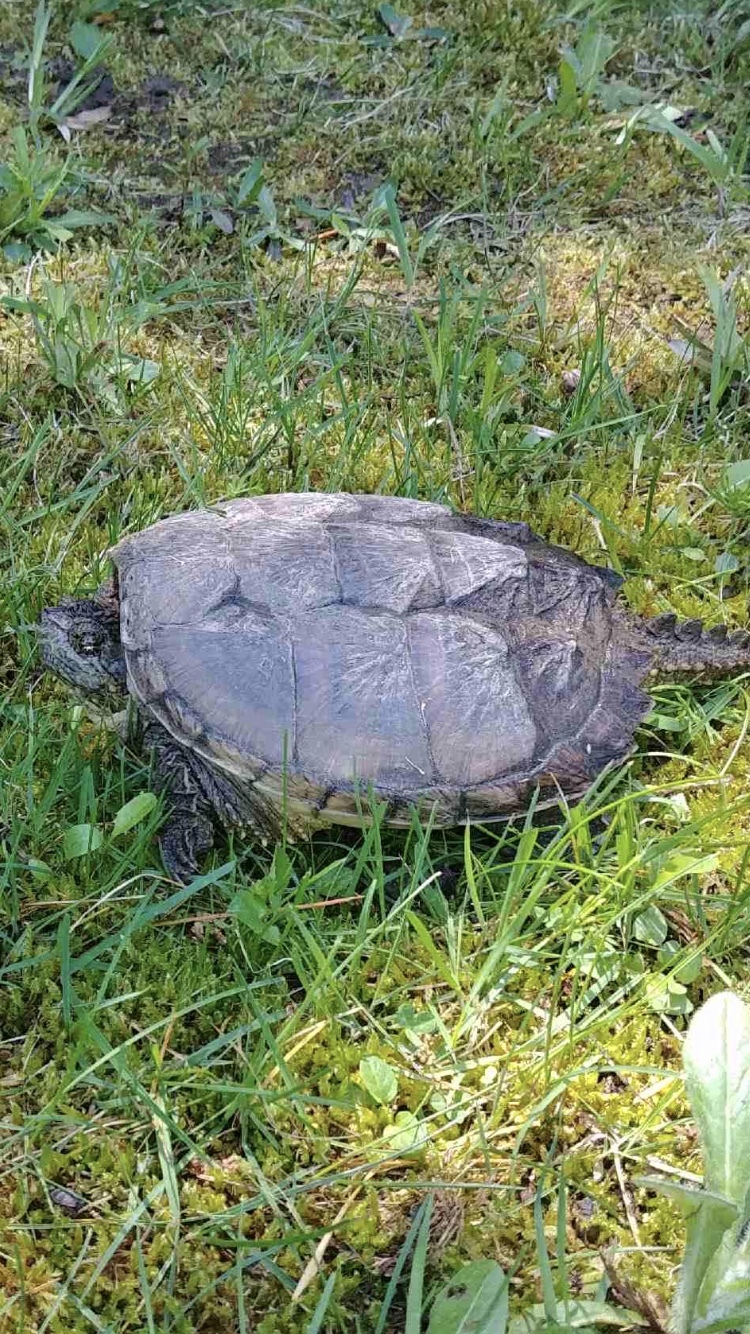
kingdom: Animalia
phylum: Chordata
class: Testudines
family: Chelydridae
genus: Chelydra
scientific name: Chelydra serpentina
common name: Common snapping turtle
